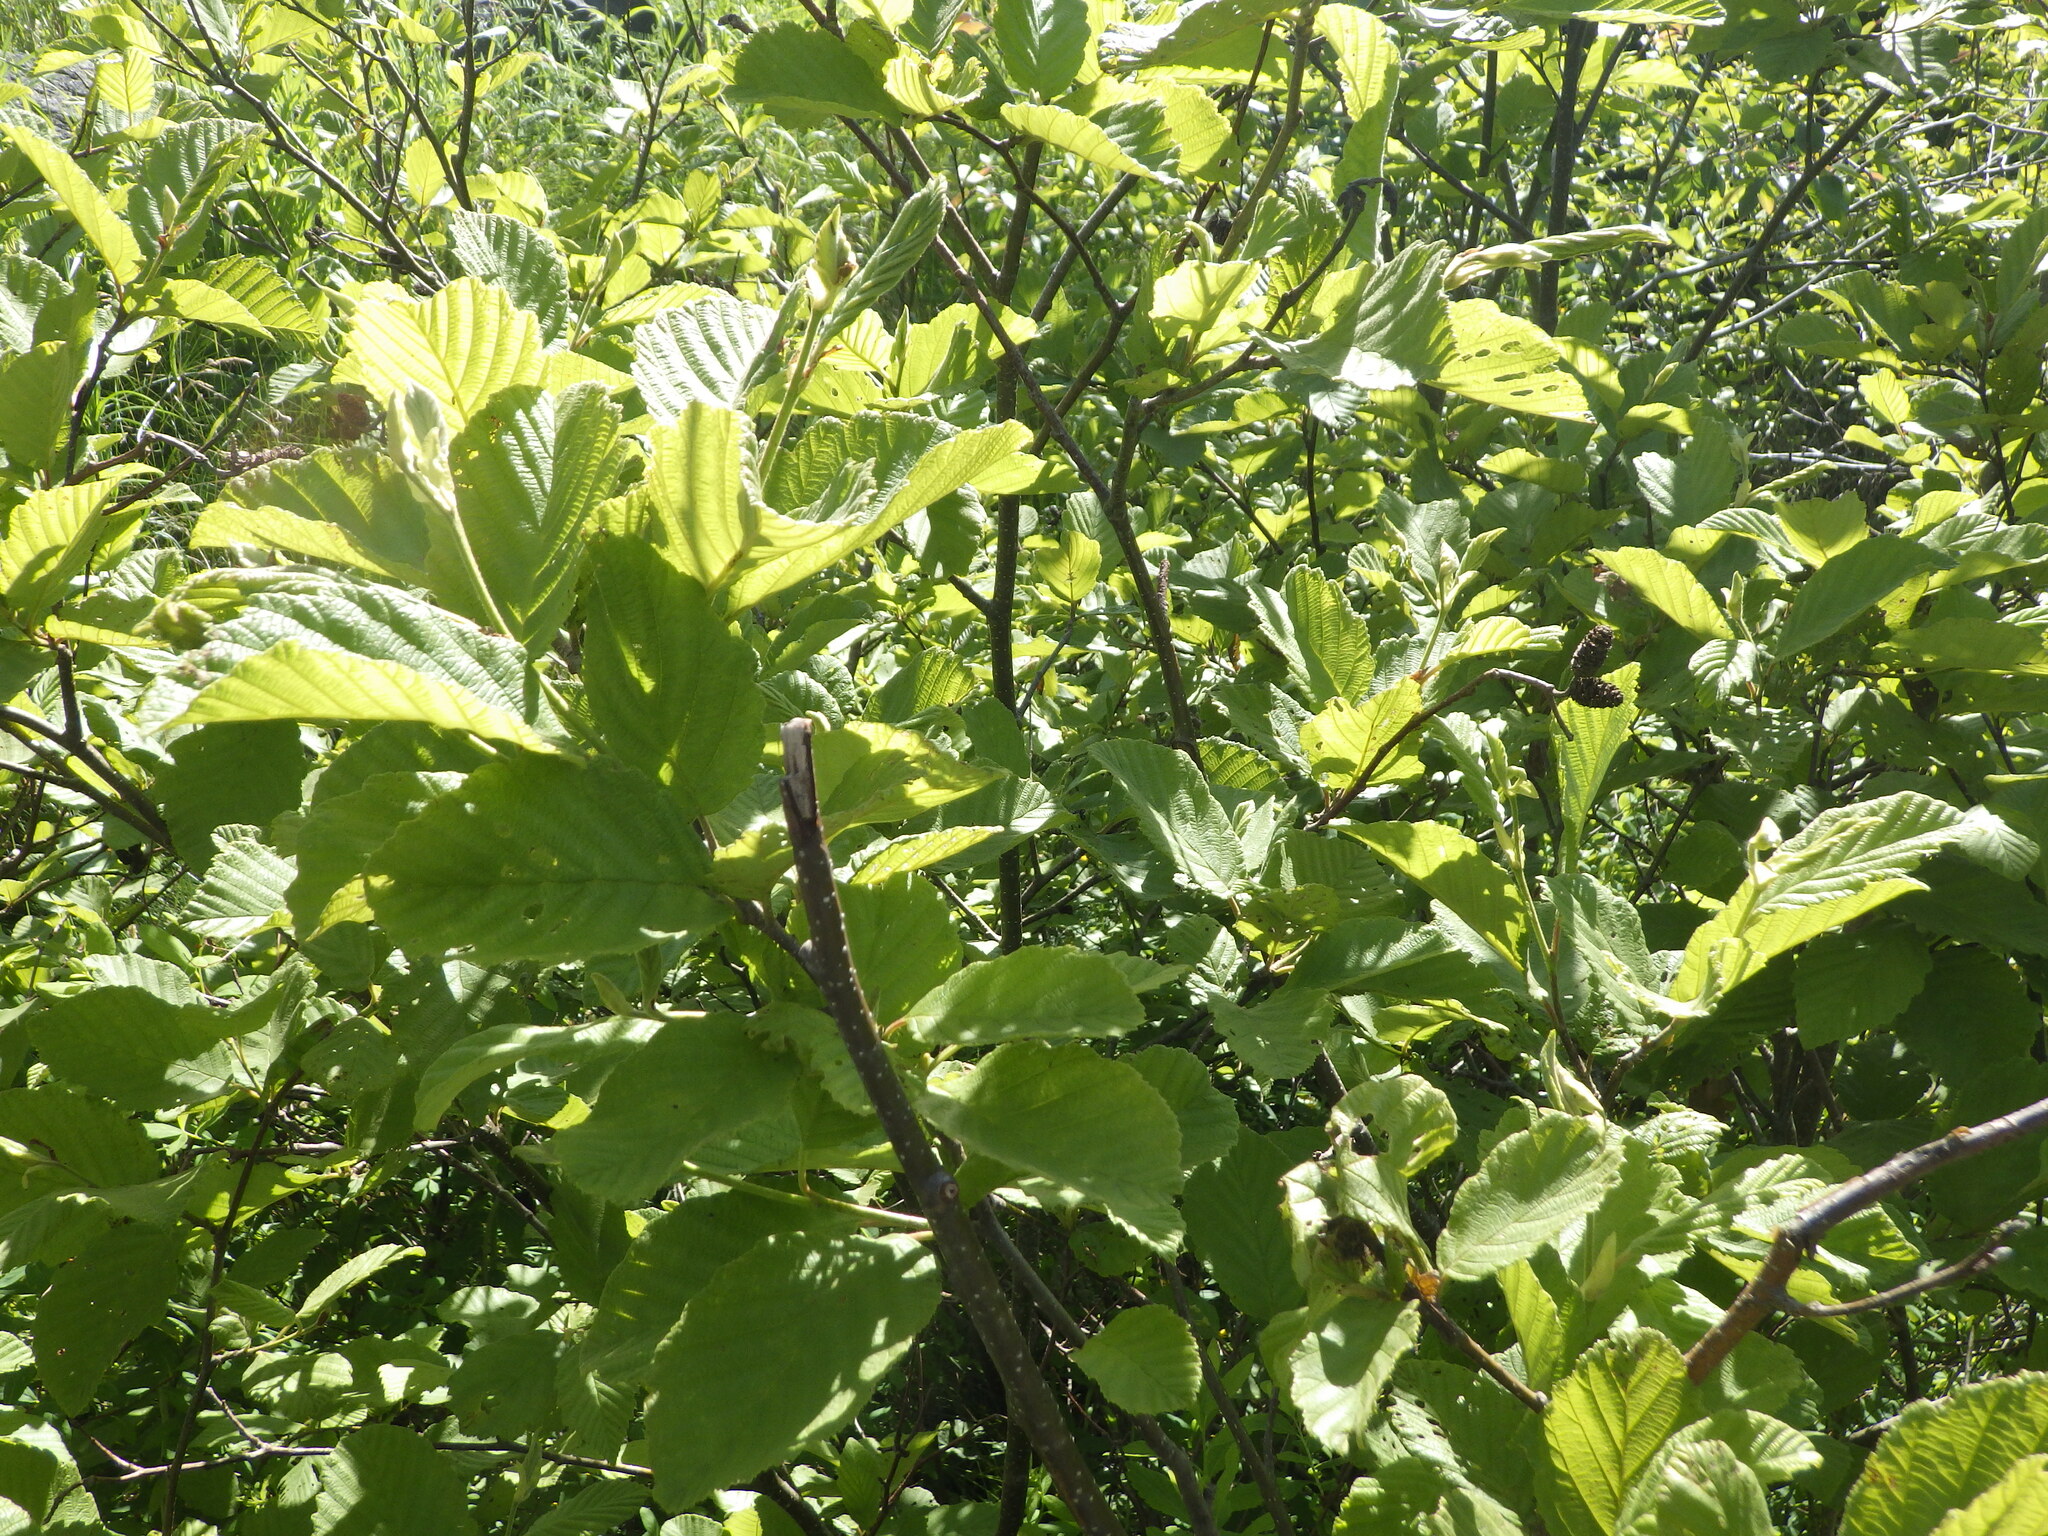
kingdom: Plantae
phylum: Tracheophyta
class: Magnoliopsida
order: Fagales
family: Betulaceae
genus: Alnus
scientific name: Alnus incana
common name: Grey alder
